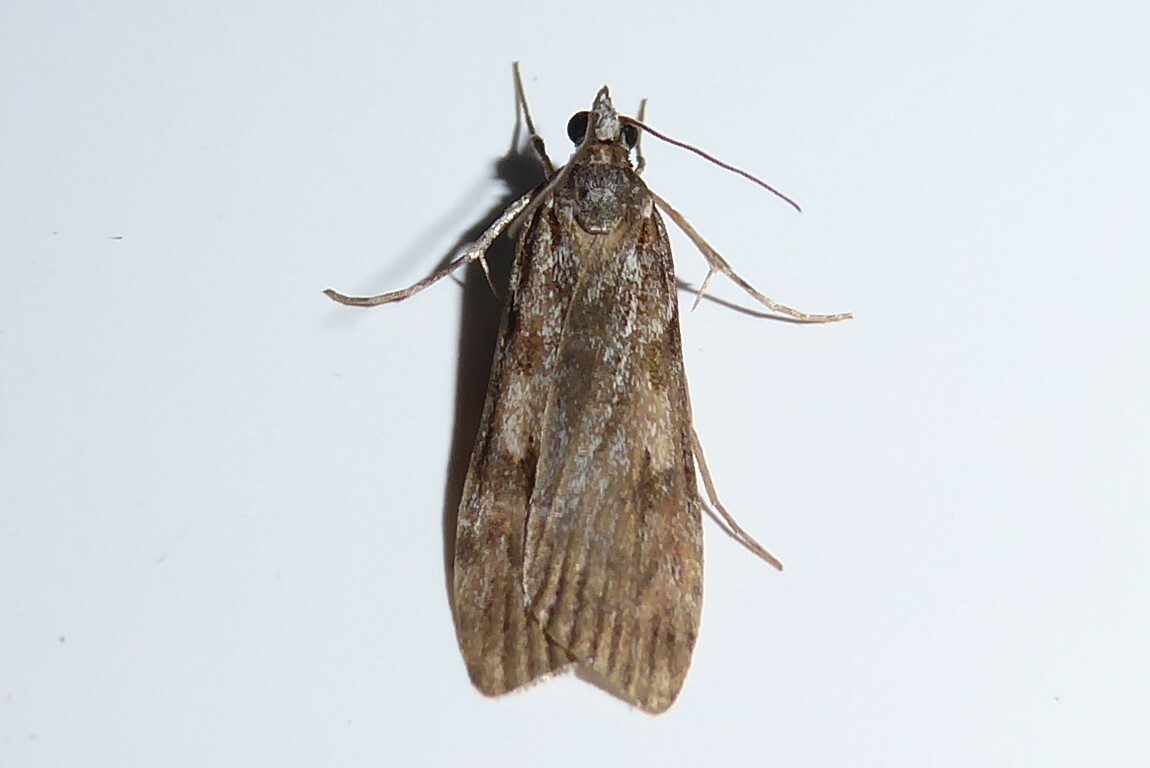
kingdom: Animalia
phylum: Arthropoda
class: Insecta
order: Lepidoptera
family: Crambidae
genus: Scoparia
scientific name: Scoparia halopis
